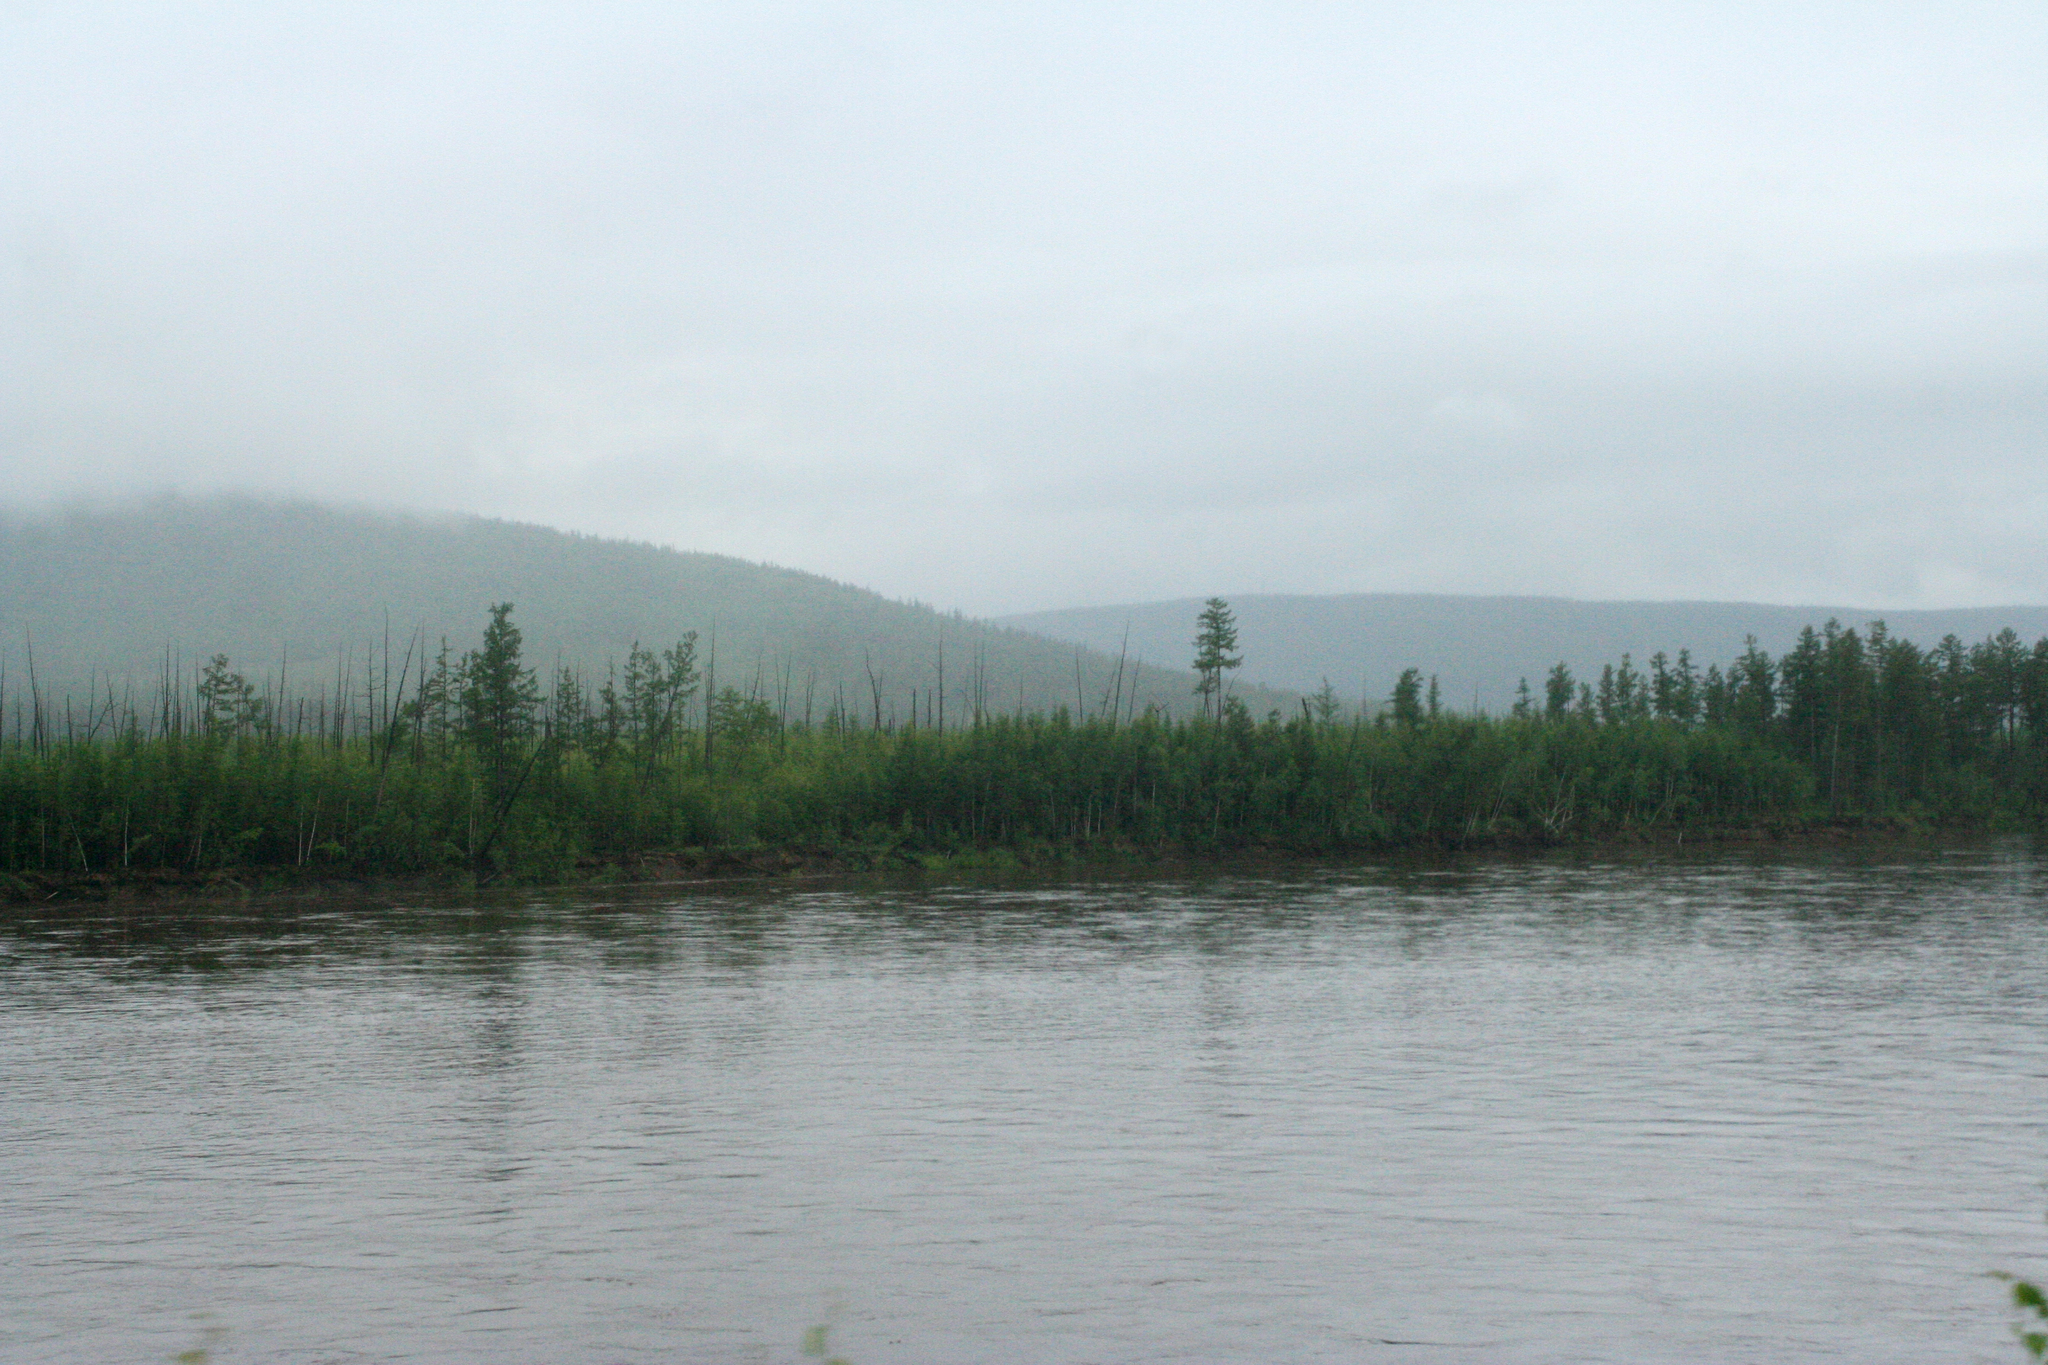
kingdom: Plantae
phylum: Tracheophyta
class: Pinopsida
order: Pinales
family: Pinaceae
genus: Larix
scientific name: Larix gmelinii
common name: Dahurian larch
